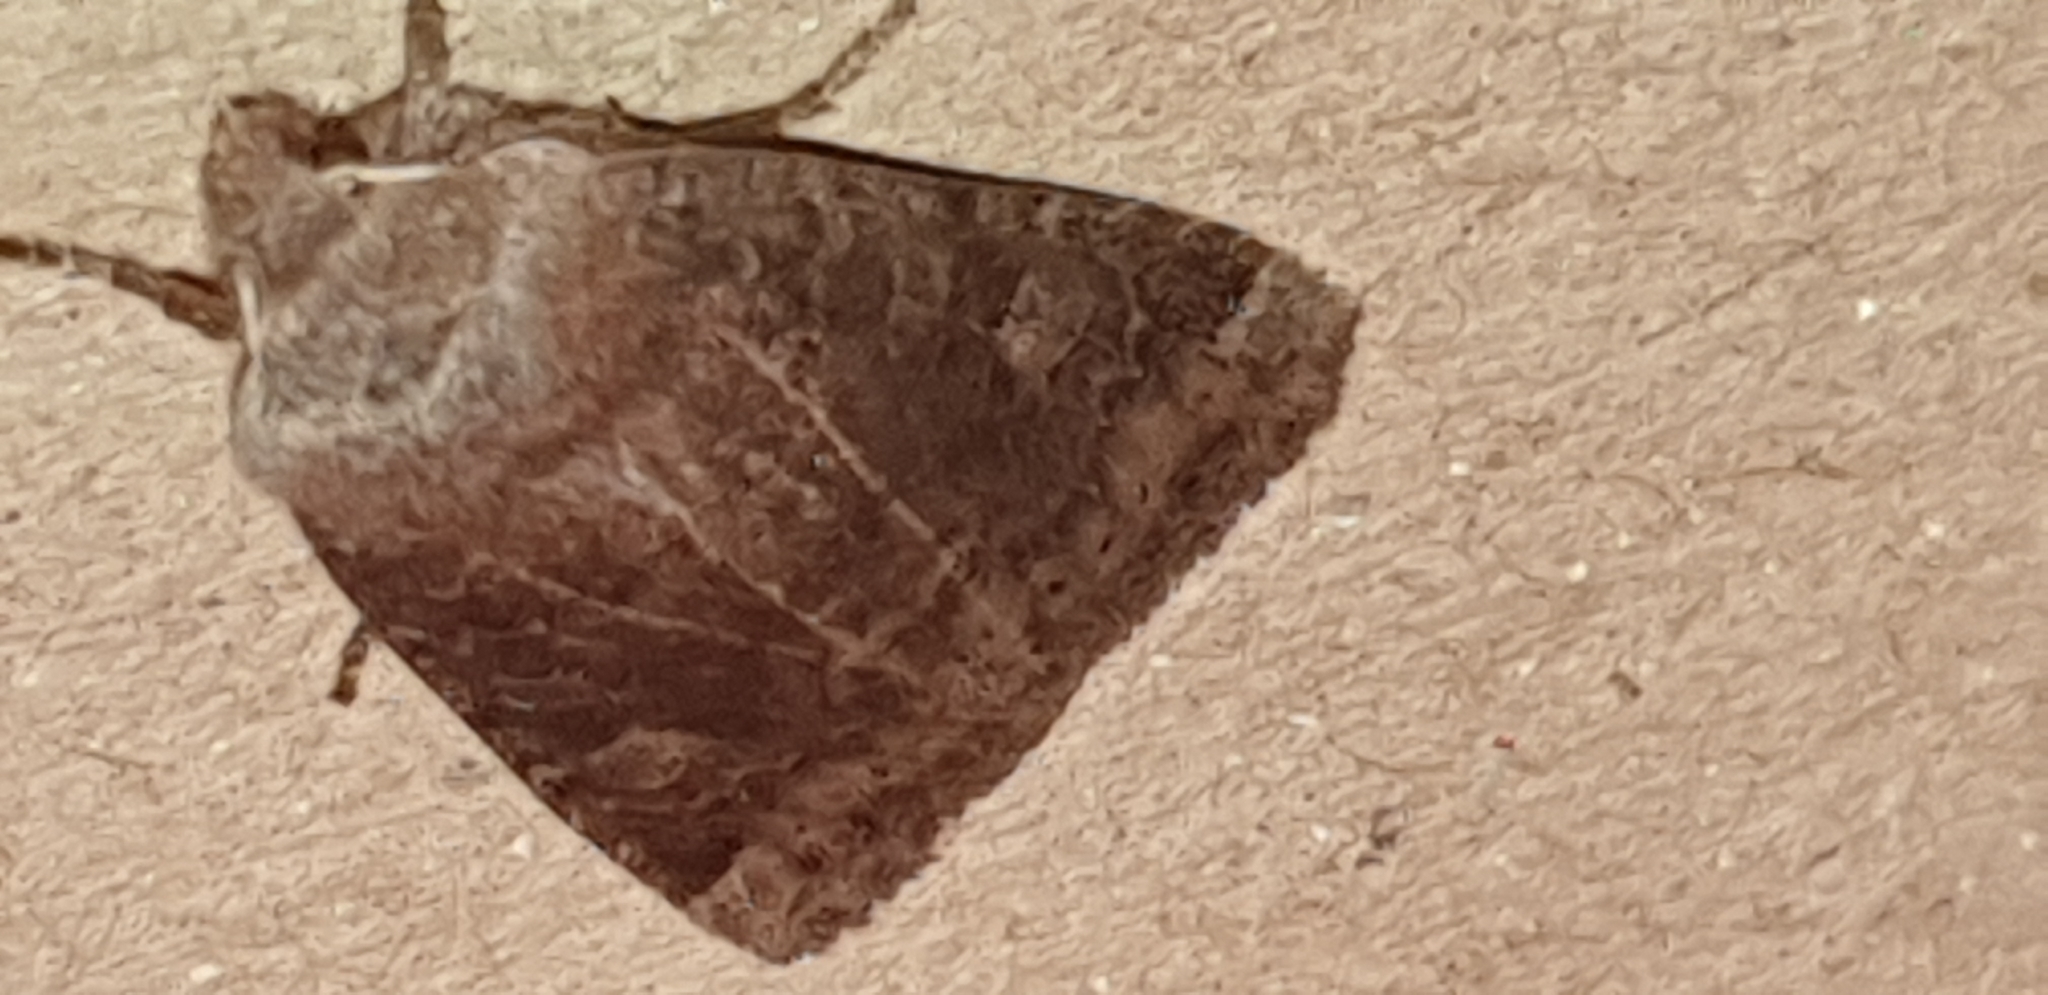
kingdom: Animalia
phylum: Arthropoda
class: Insecta
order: Lepidoptera
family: Noctuidae
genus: Conistra
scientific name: Conistra vaccinii
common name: Chestnut
